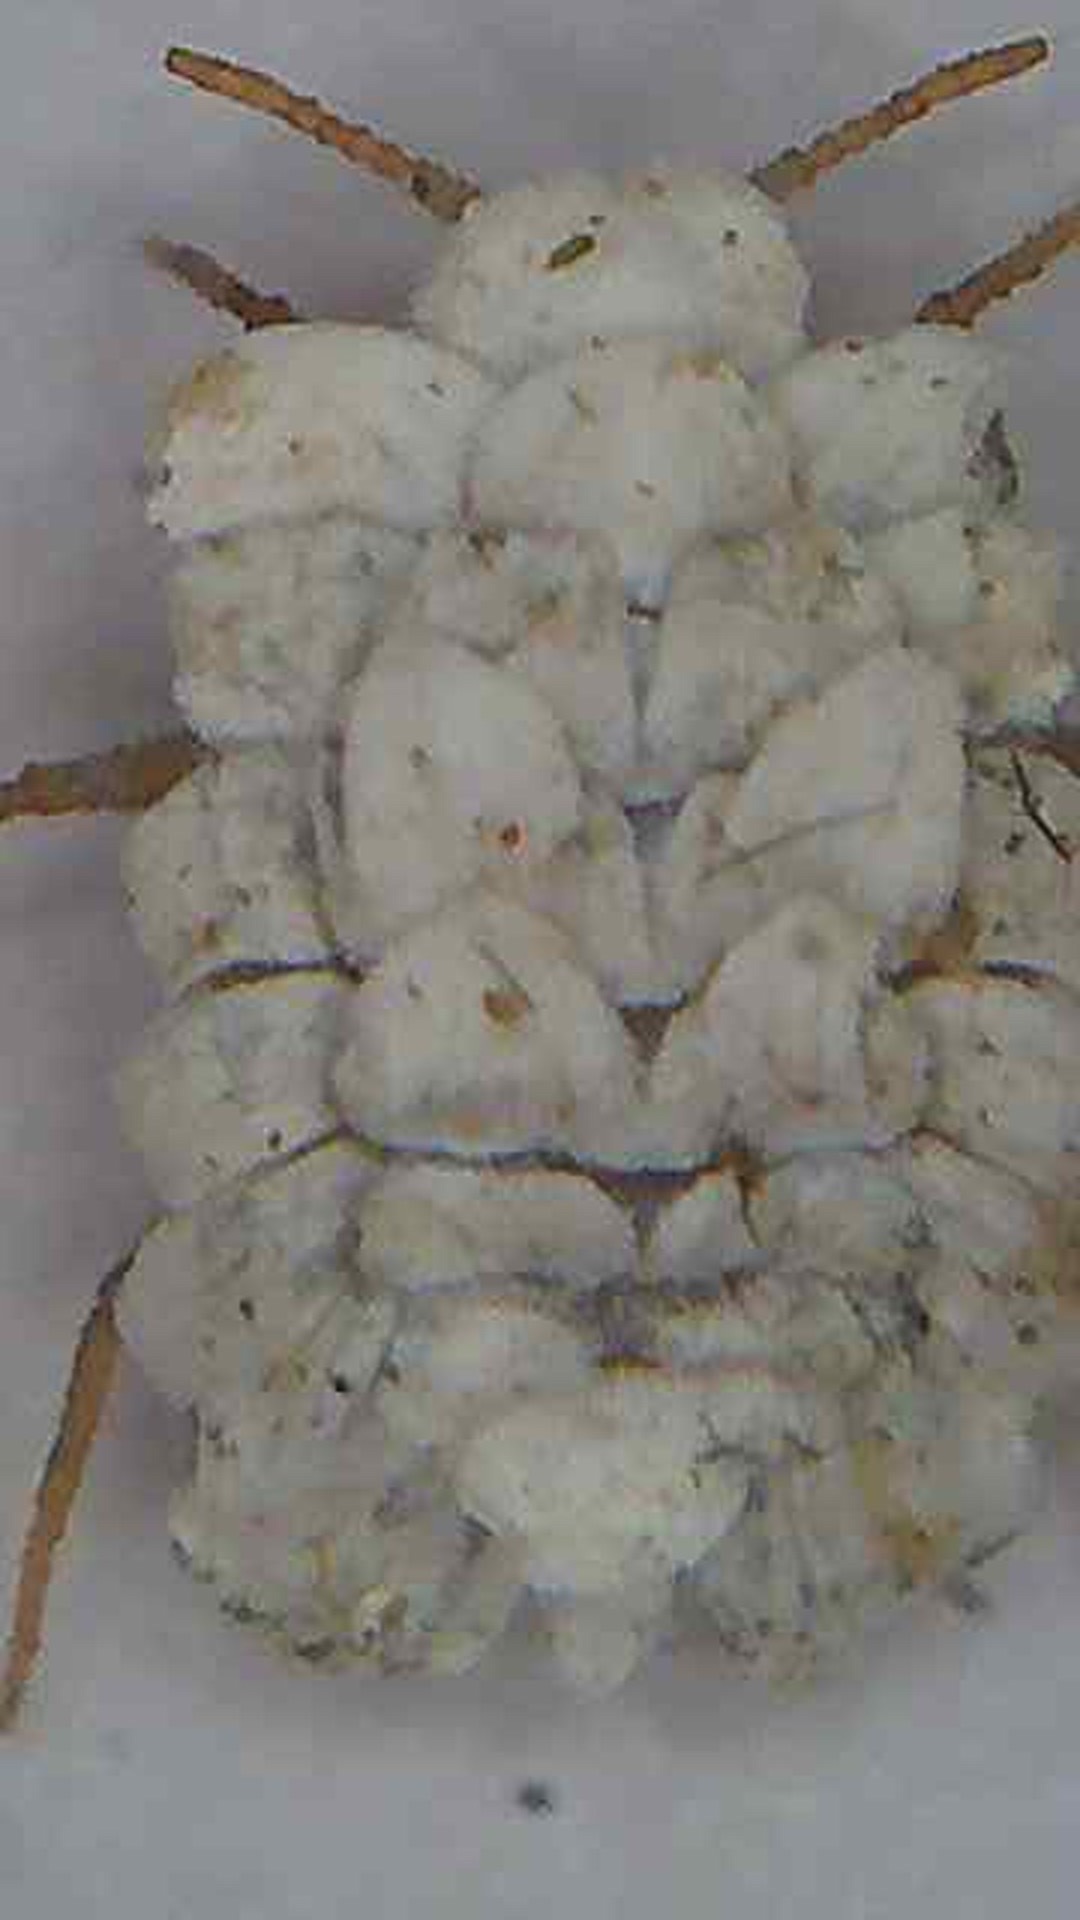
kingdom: Animalia
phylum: Arthropoda
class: Insecta
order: Hemiptera
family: Ortheziidae
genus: Newsteadia
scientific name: Newsteadia gullanae
